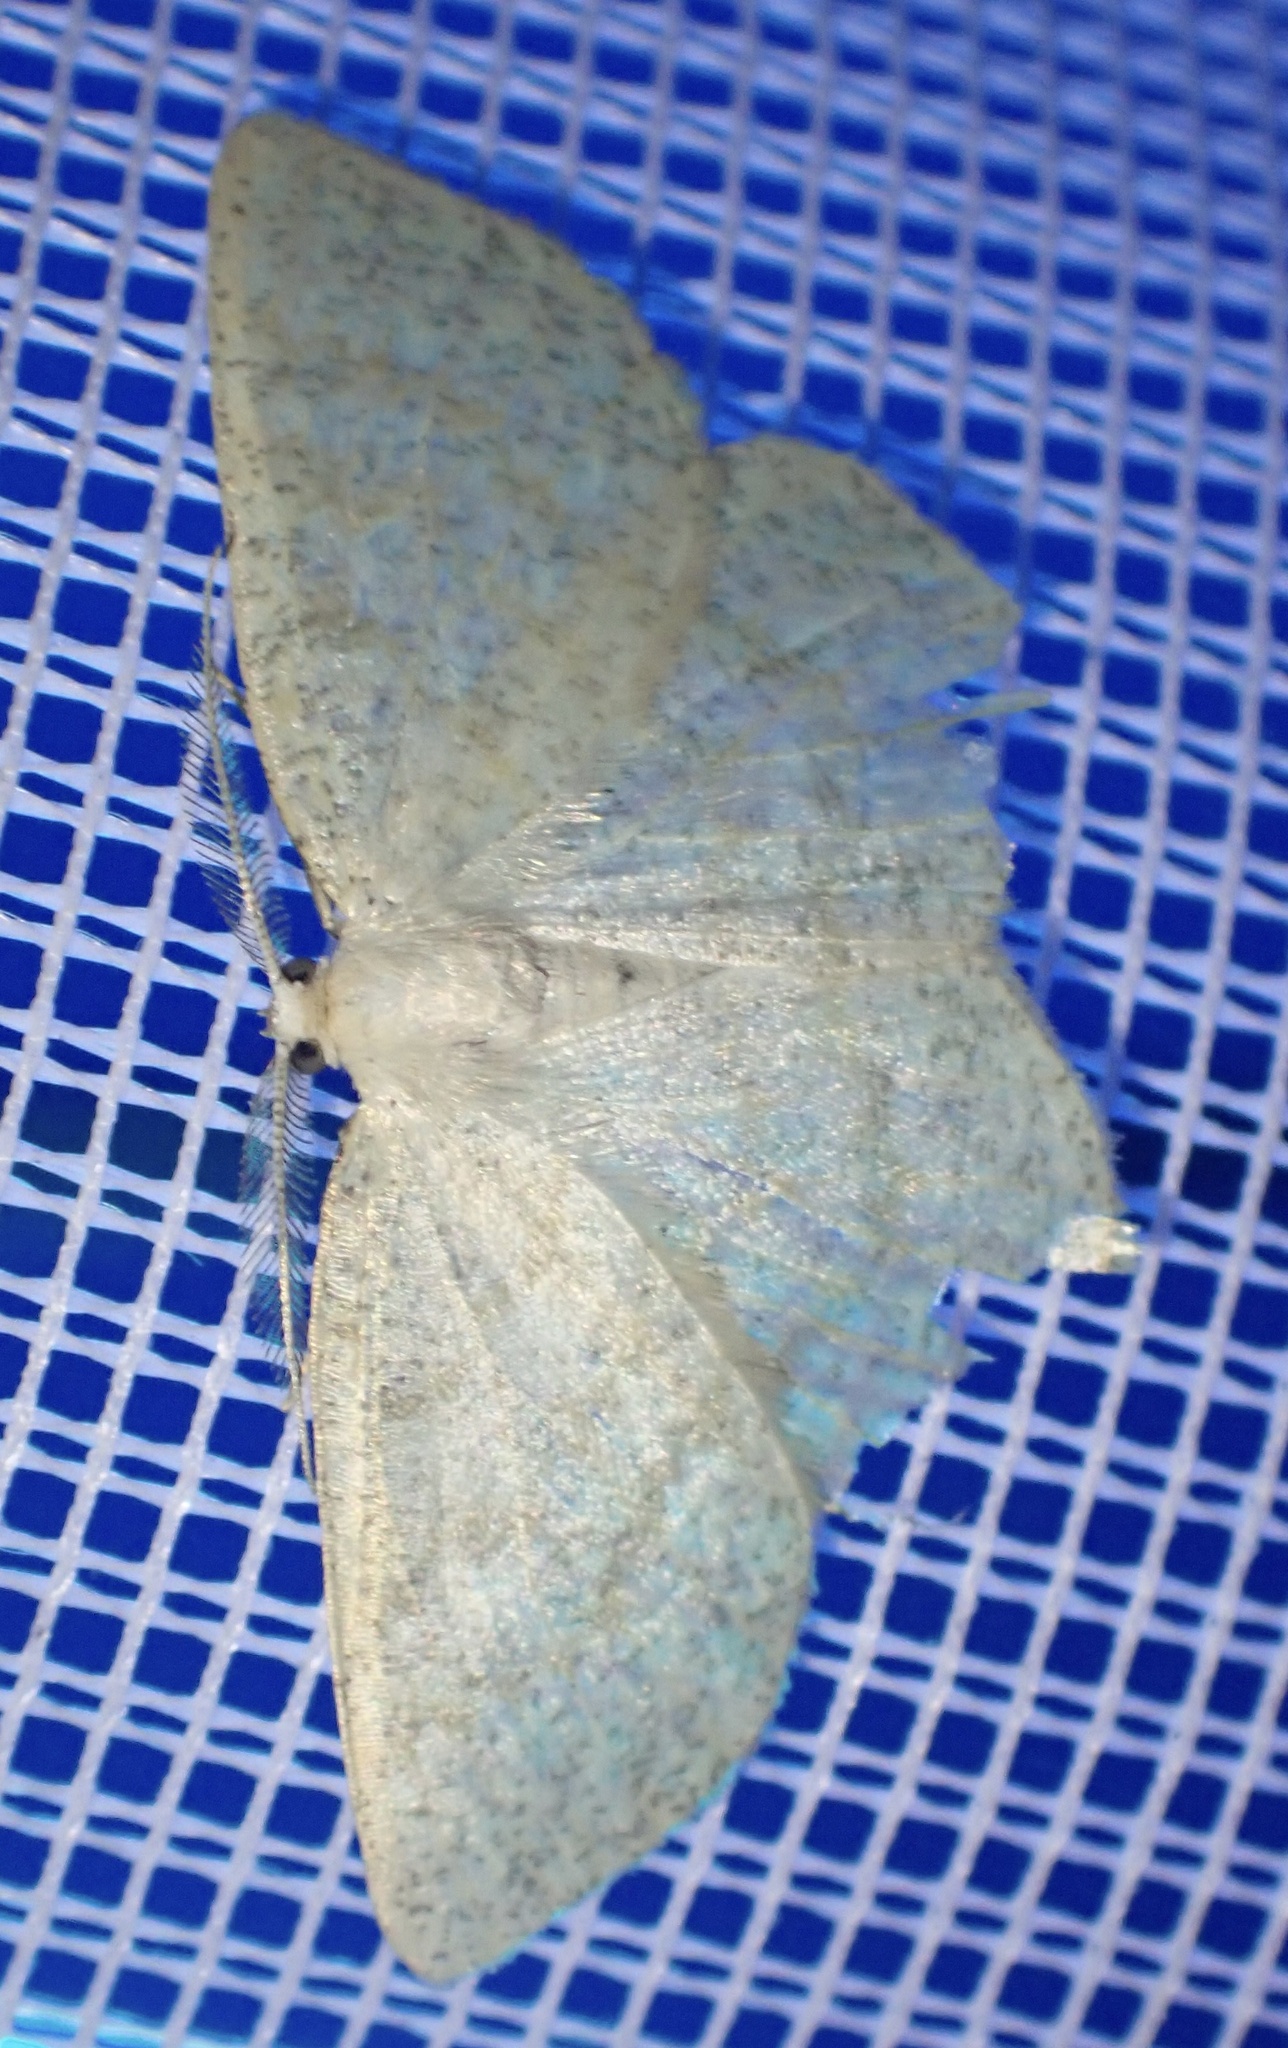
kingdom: Animalia
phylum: Arthropoda
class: Insecta
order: Lepidoptera
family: Geometridae
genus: Cabera
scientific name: Cabera exanthemata
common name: Common wave
